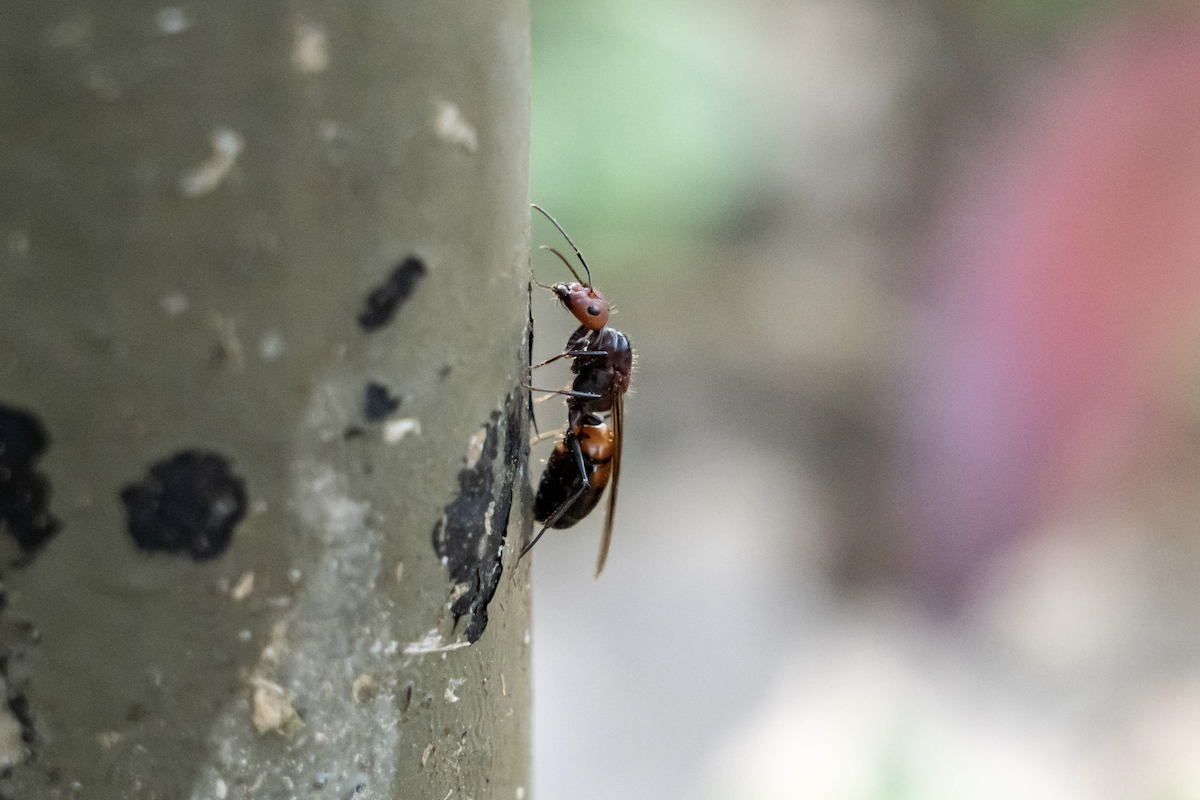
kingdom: Animalia
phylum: Arthropoda
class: Insecta
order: Hymenoptera
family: Formicidae
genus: Camponotus
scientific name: Camponotus nicobarensis
